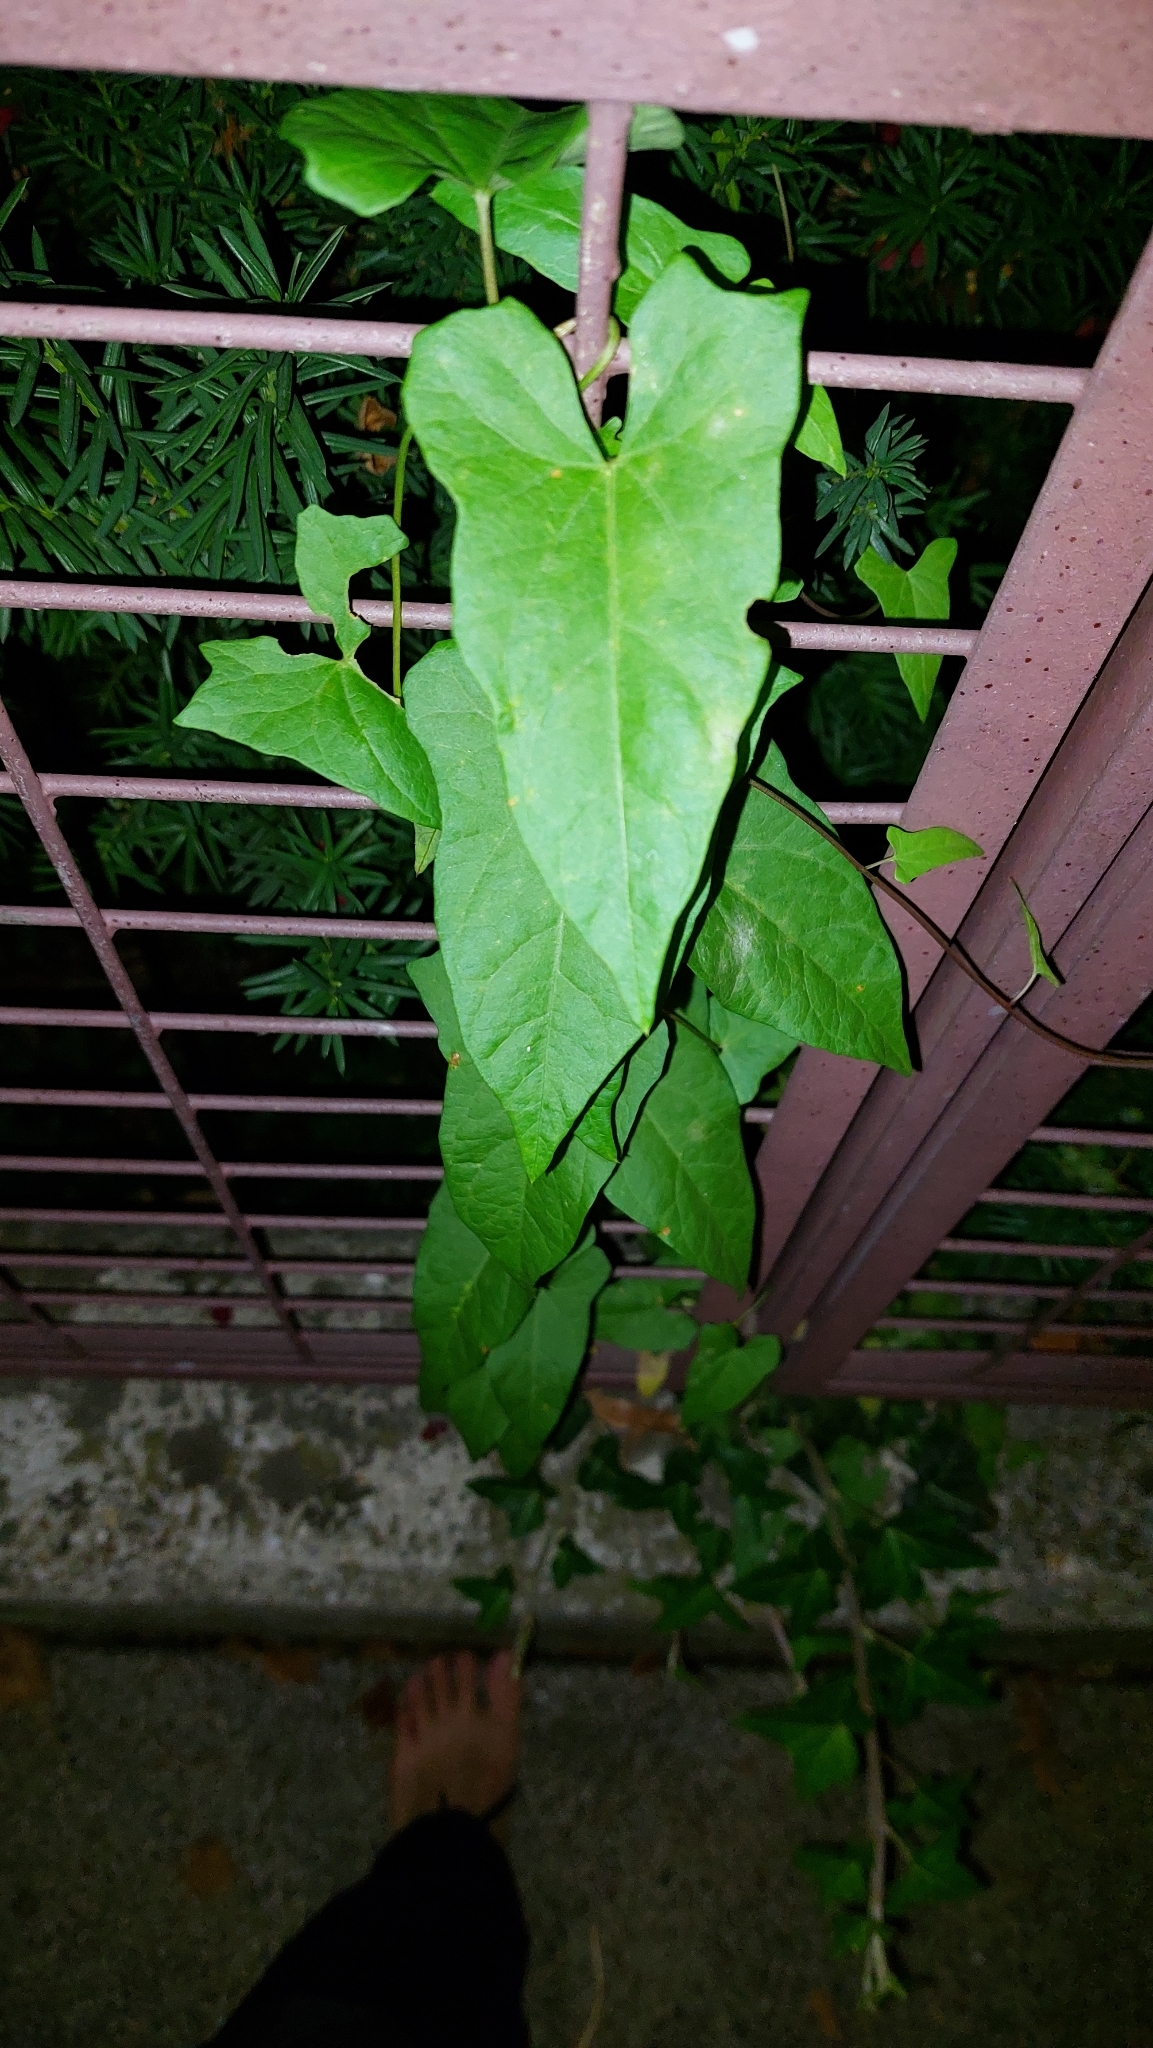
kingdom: Plantae
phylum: Tracheophyta
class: Magnoliopsida
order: Solanales
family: Convolvulaceae
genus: Calystegia
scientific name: Calystegia sepium
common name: Hedge bindweed
